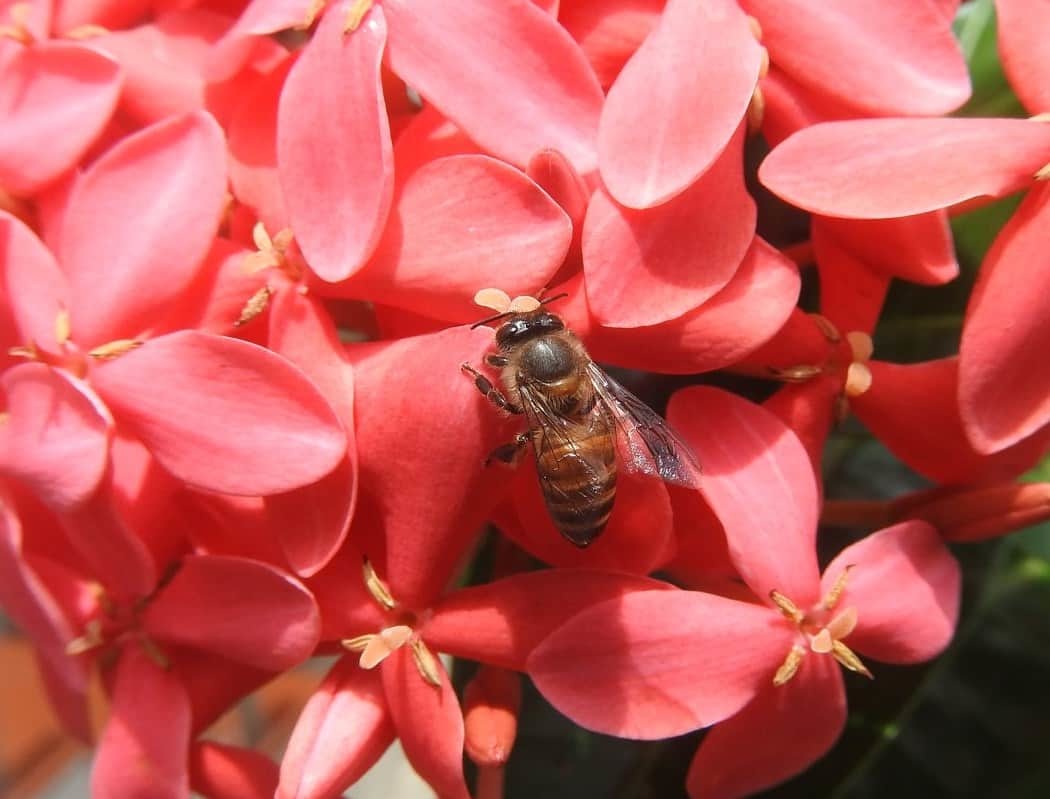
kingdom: Animalia
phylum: Arthropoda
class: Insecta
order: Hymenoptera
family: Apidae
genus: Apis
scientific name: Apis cerana
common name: Honey bee
